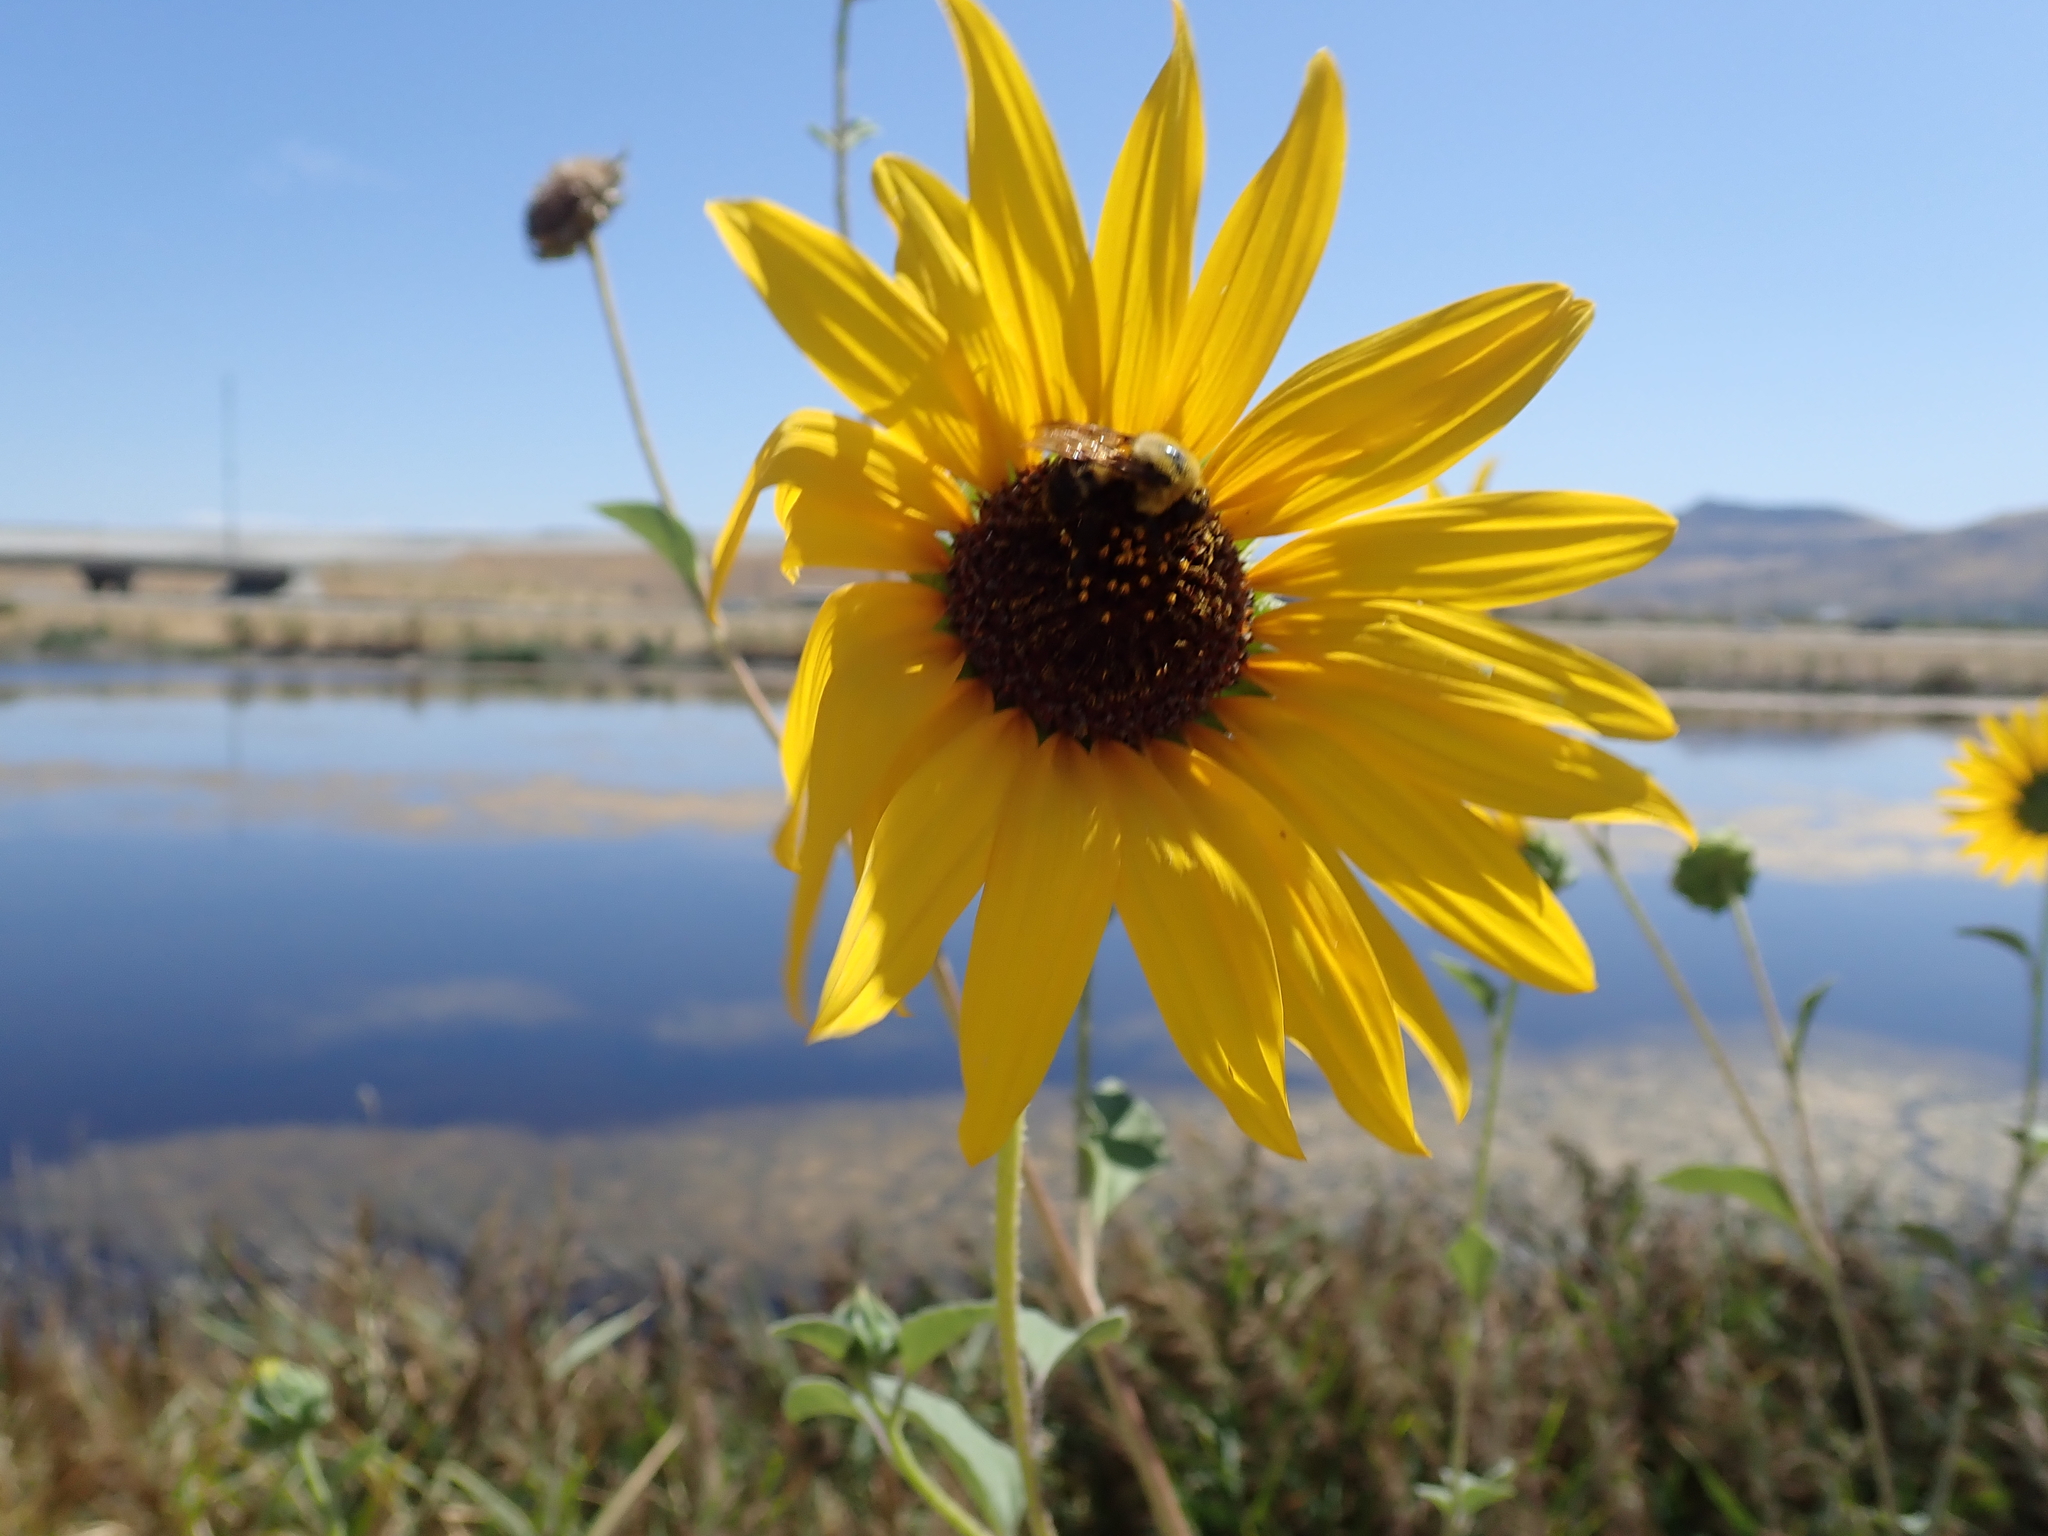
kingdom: Plantae
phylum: Tracheophyta
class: Magnoliopsida
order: Asterales
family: Asteraceae
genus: Helianthus
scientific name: Helianthus annuus
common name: Sunflower
